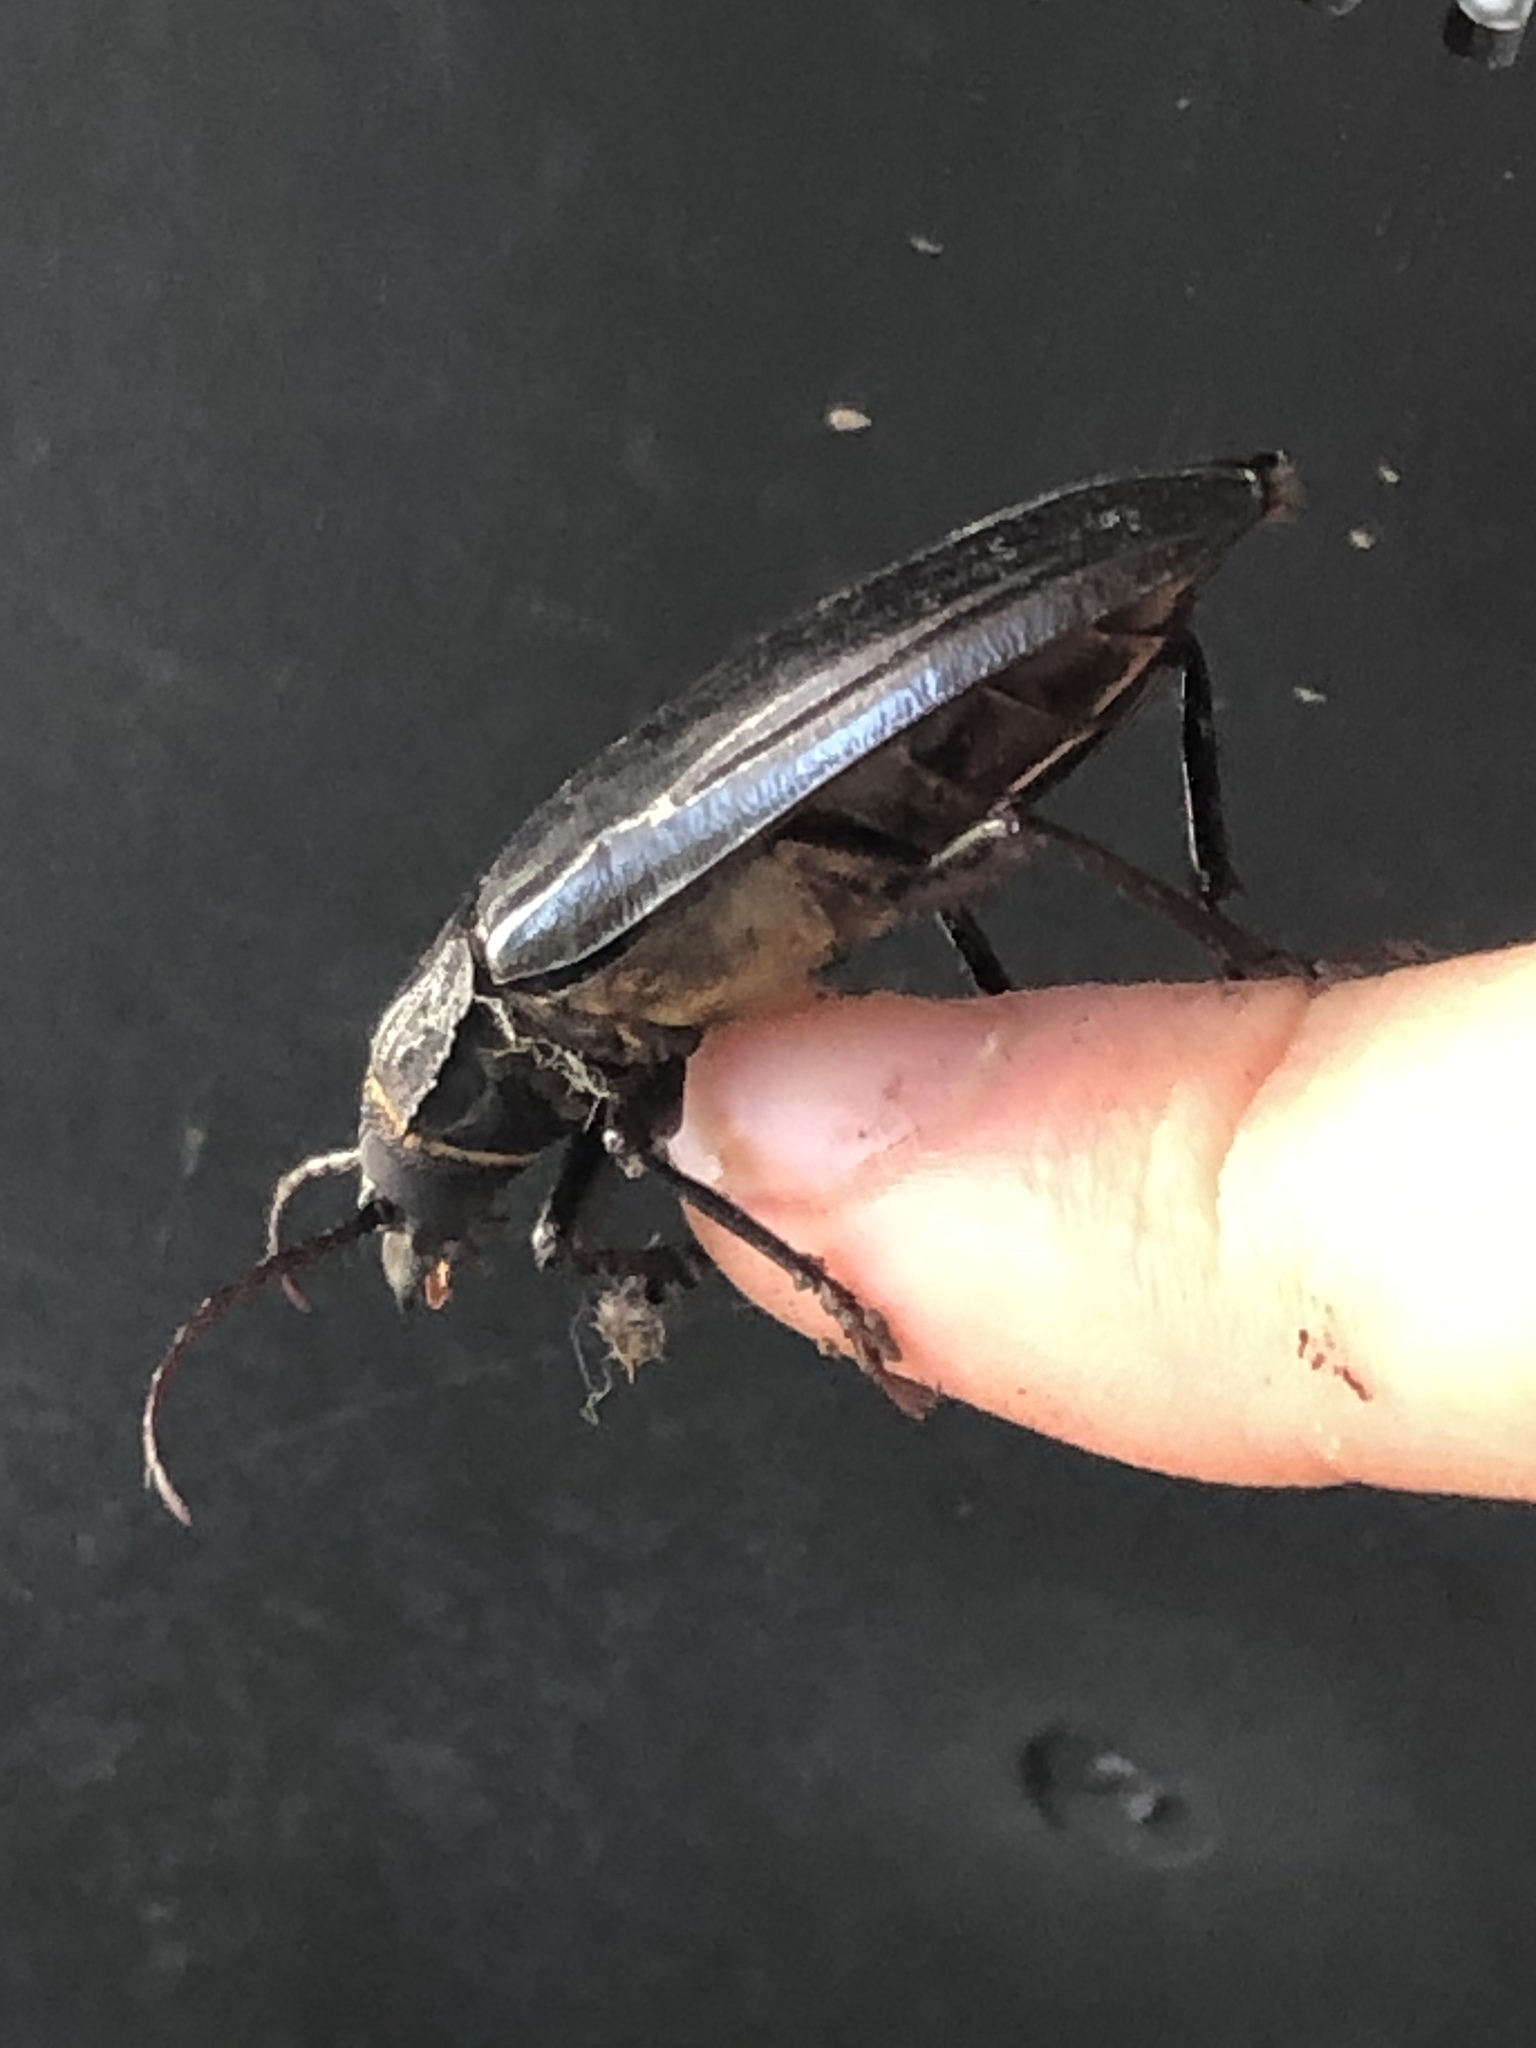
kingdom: Animalia
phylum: Arthropoda
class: Insecta
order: Coleoptera
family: Cerambycidae
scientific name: Cerambycidae
